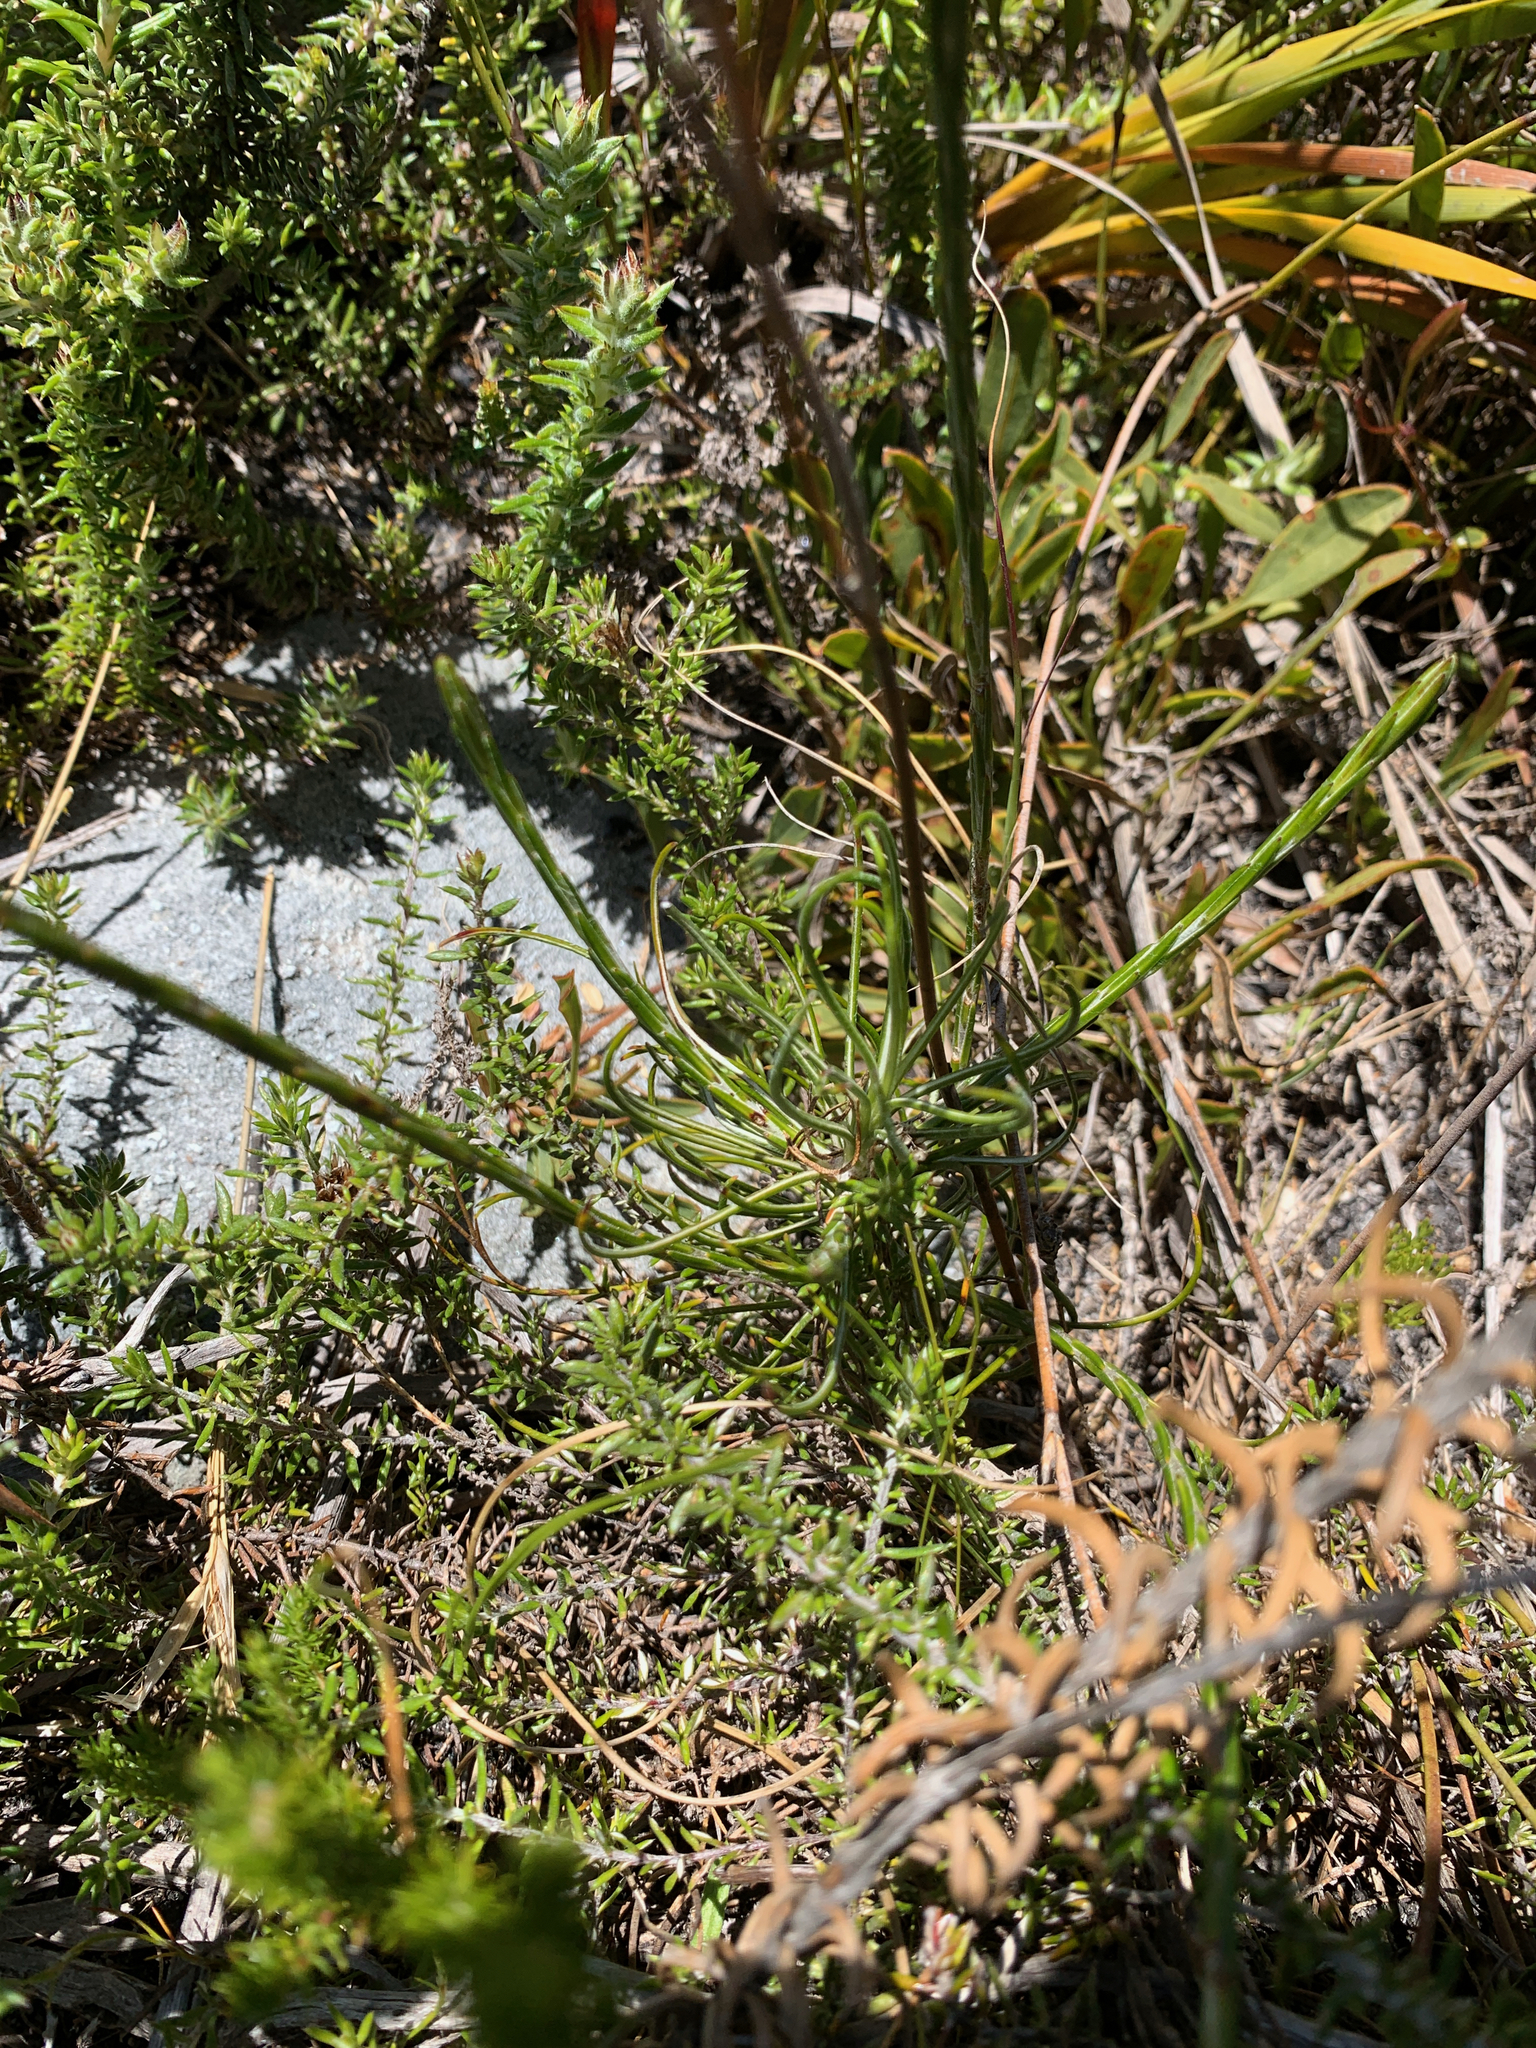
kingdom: Plantae
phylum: Tracheophyta
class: Magnoliopsida
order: Asterales
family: Asteraceae
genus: Edmondia
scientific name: Edmondia sesamoides
